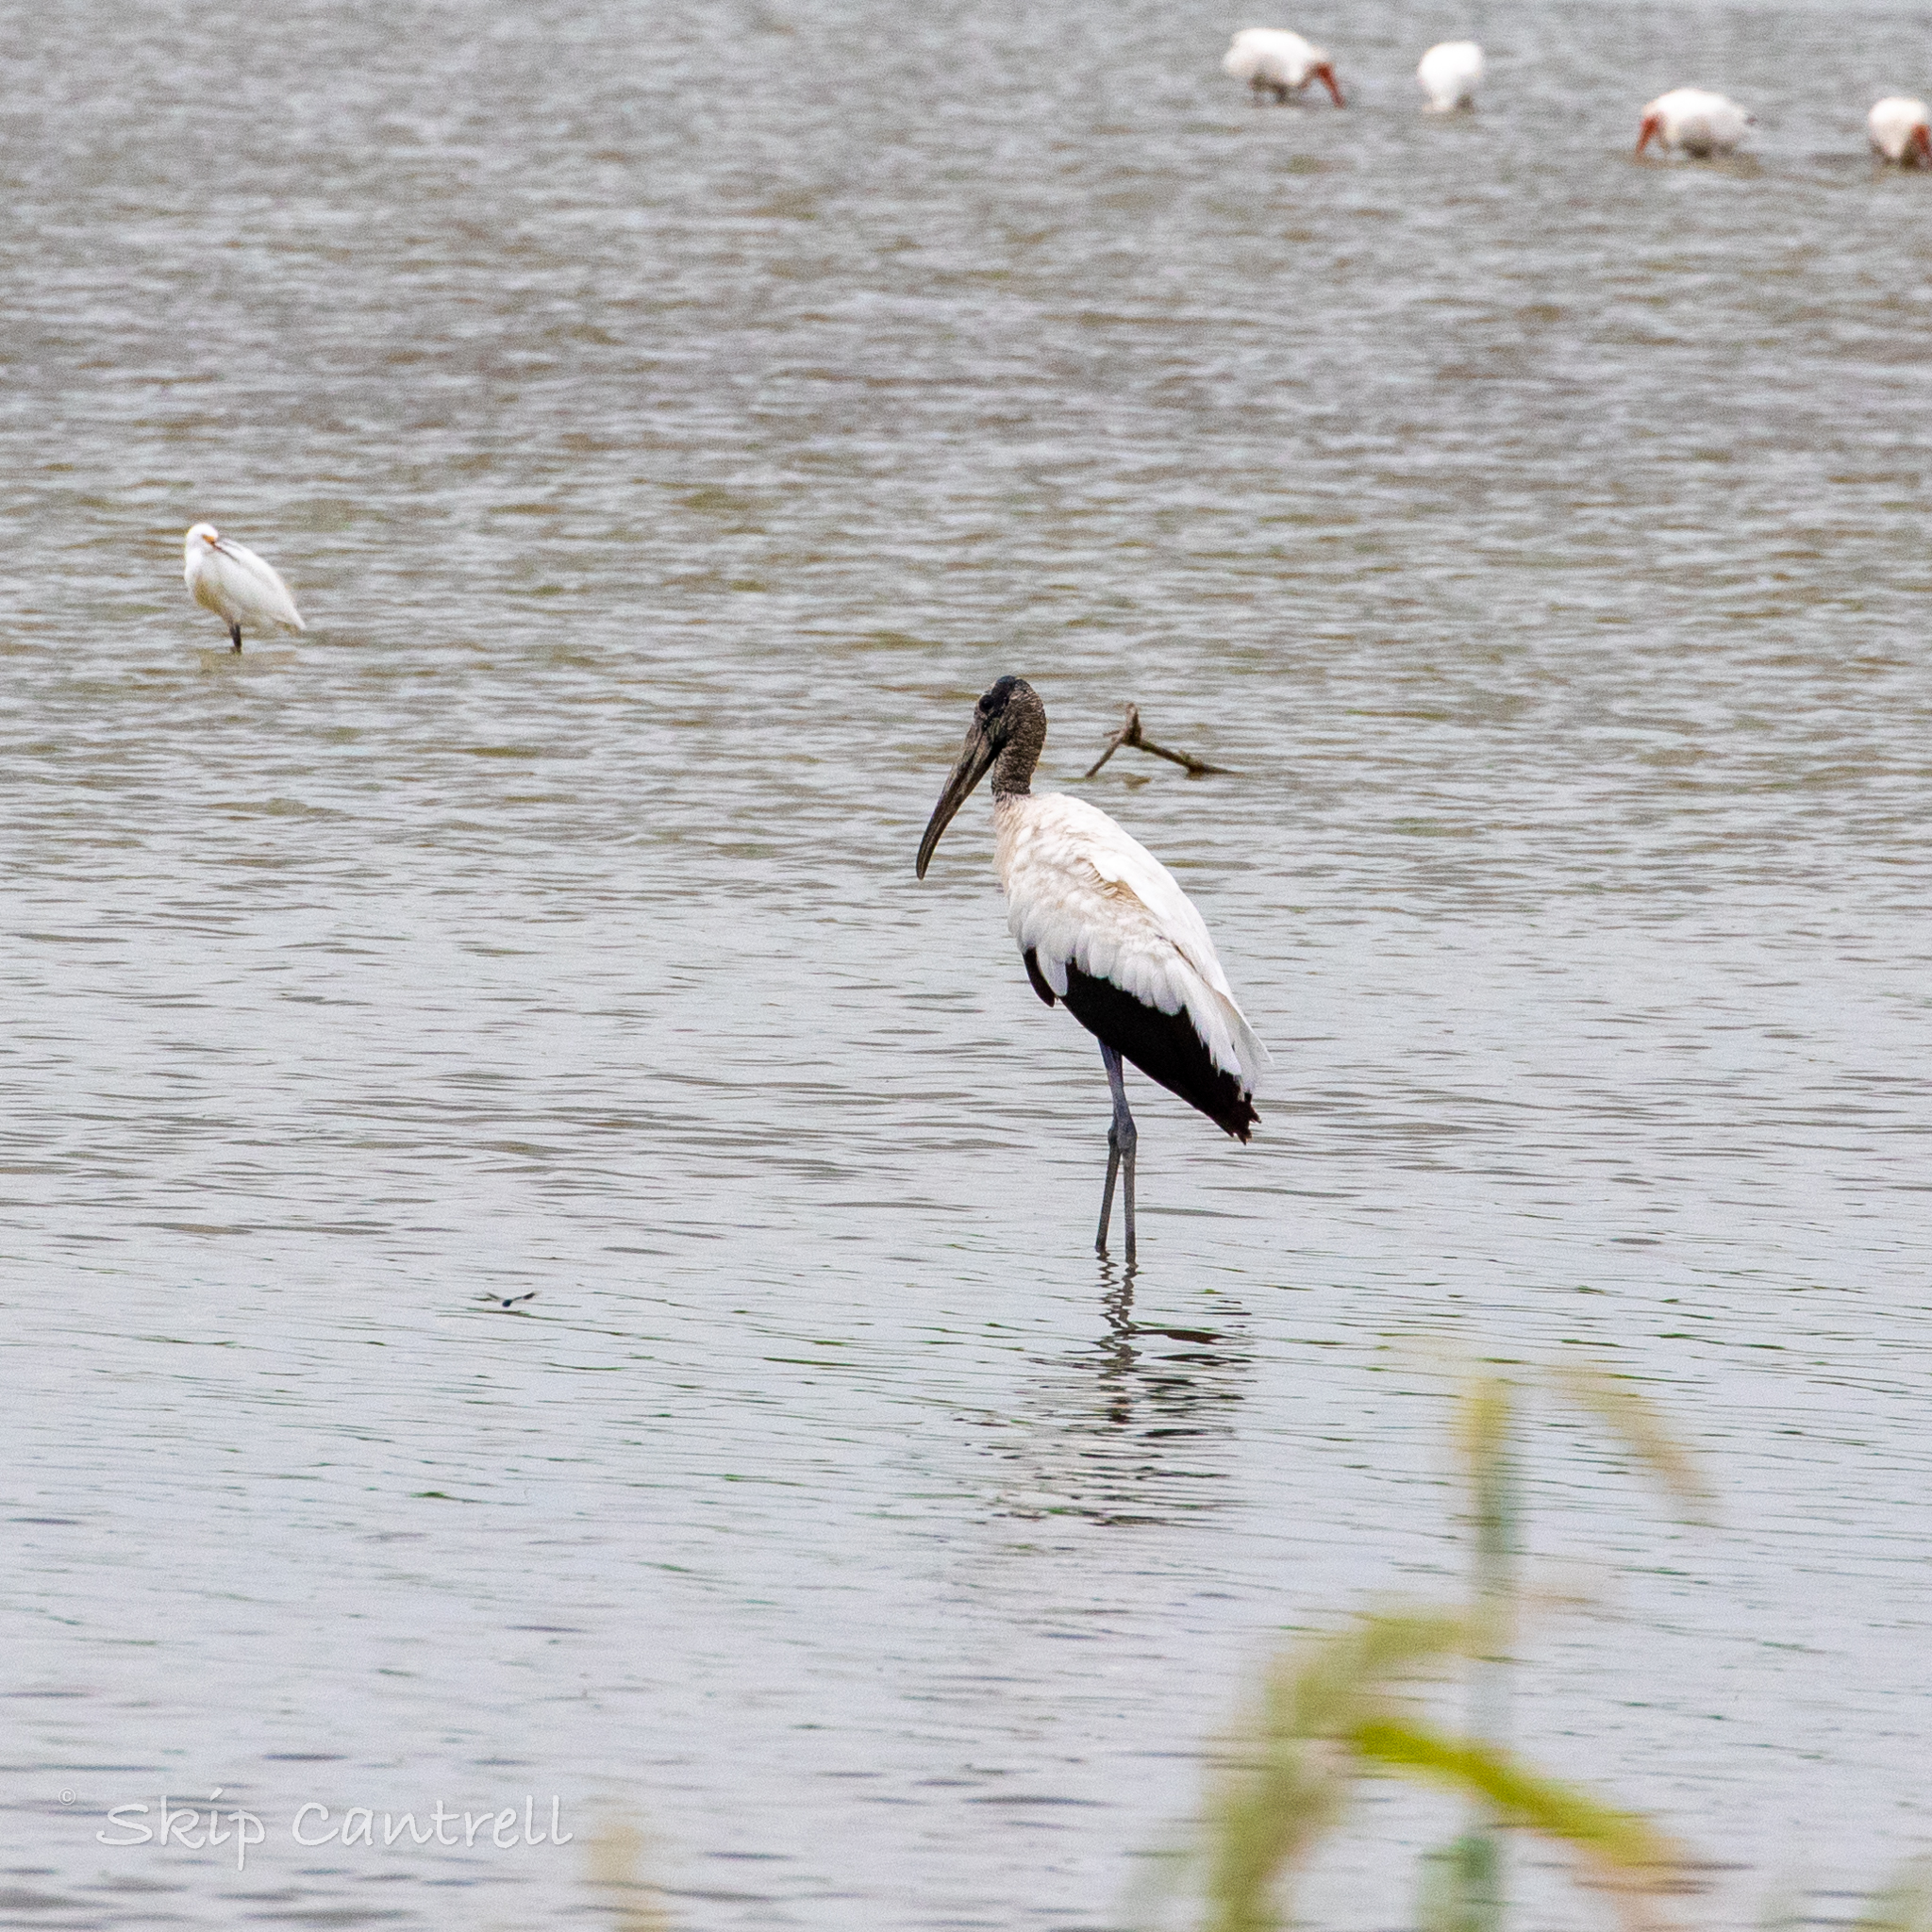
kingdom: Animalia
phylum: Chordata
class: Aves
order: Ciconiiformes
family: Ciconiidae
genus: Mycteria
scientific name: Mycteria americana
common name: Wood stork
